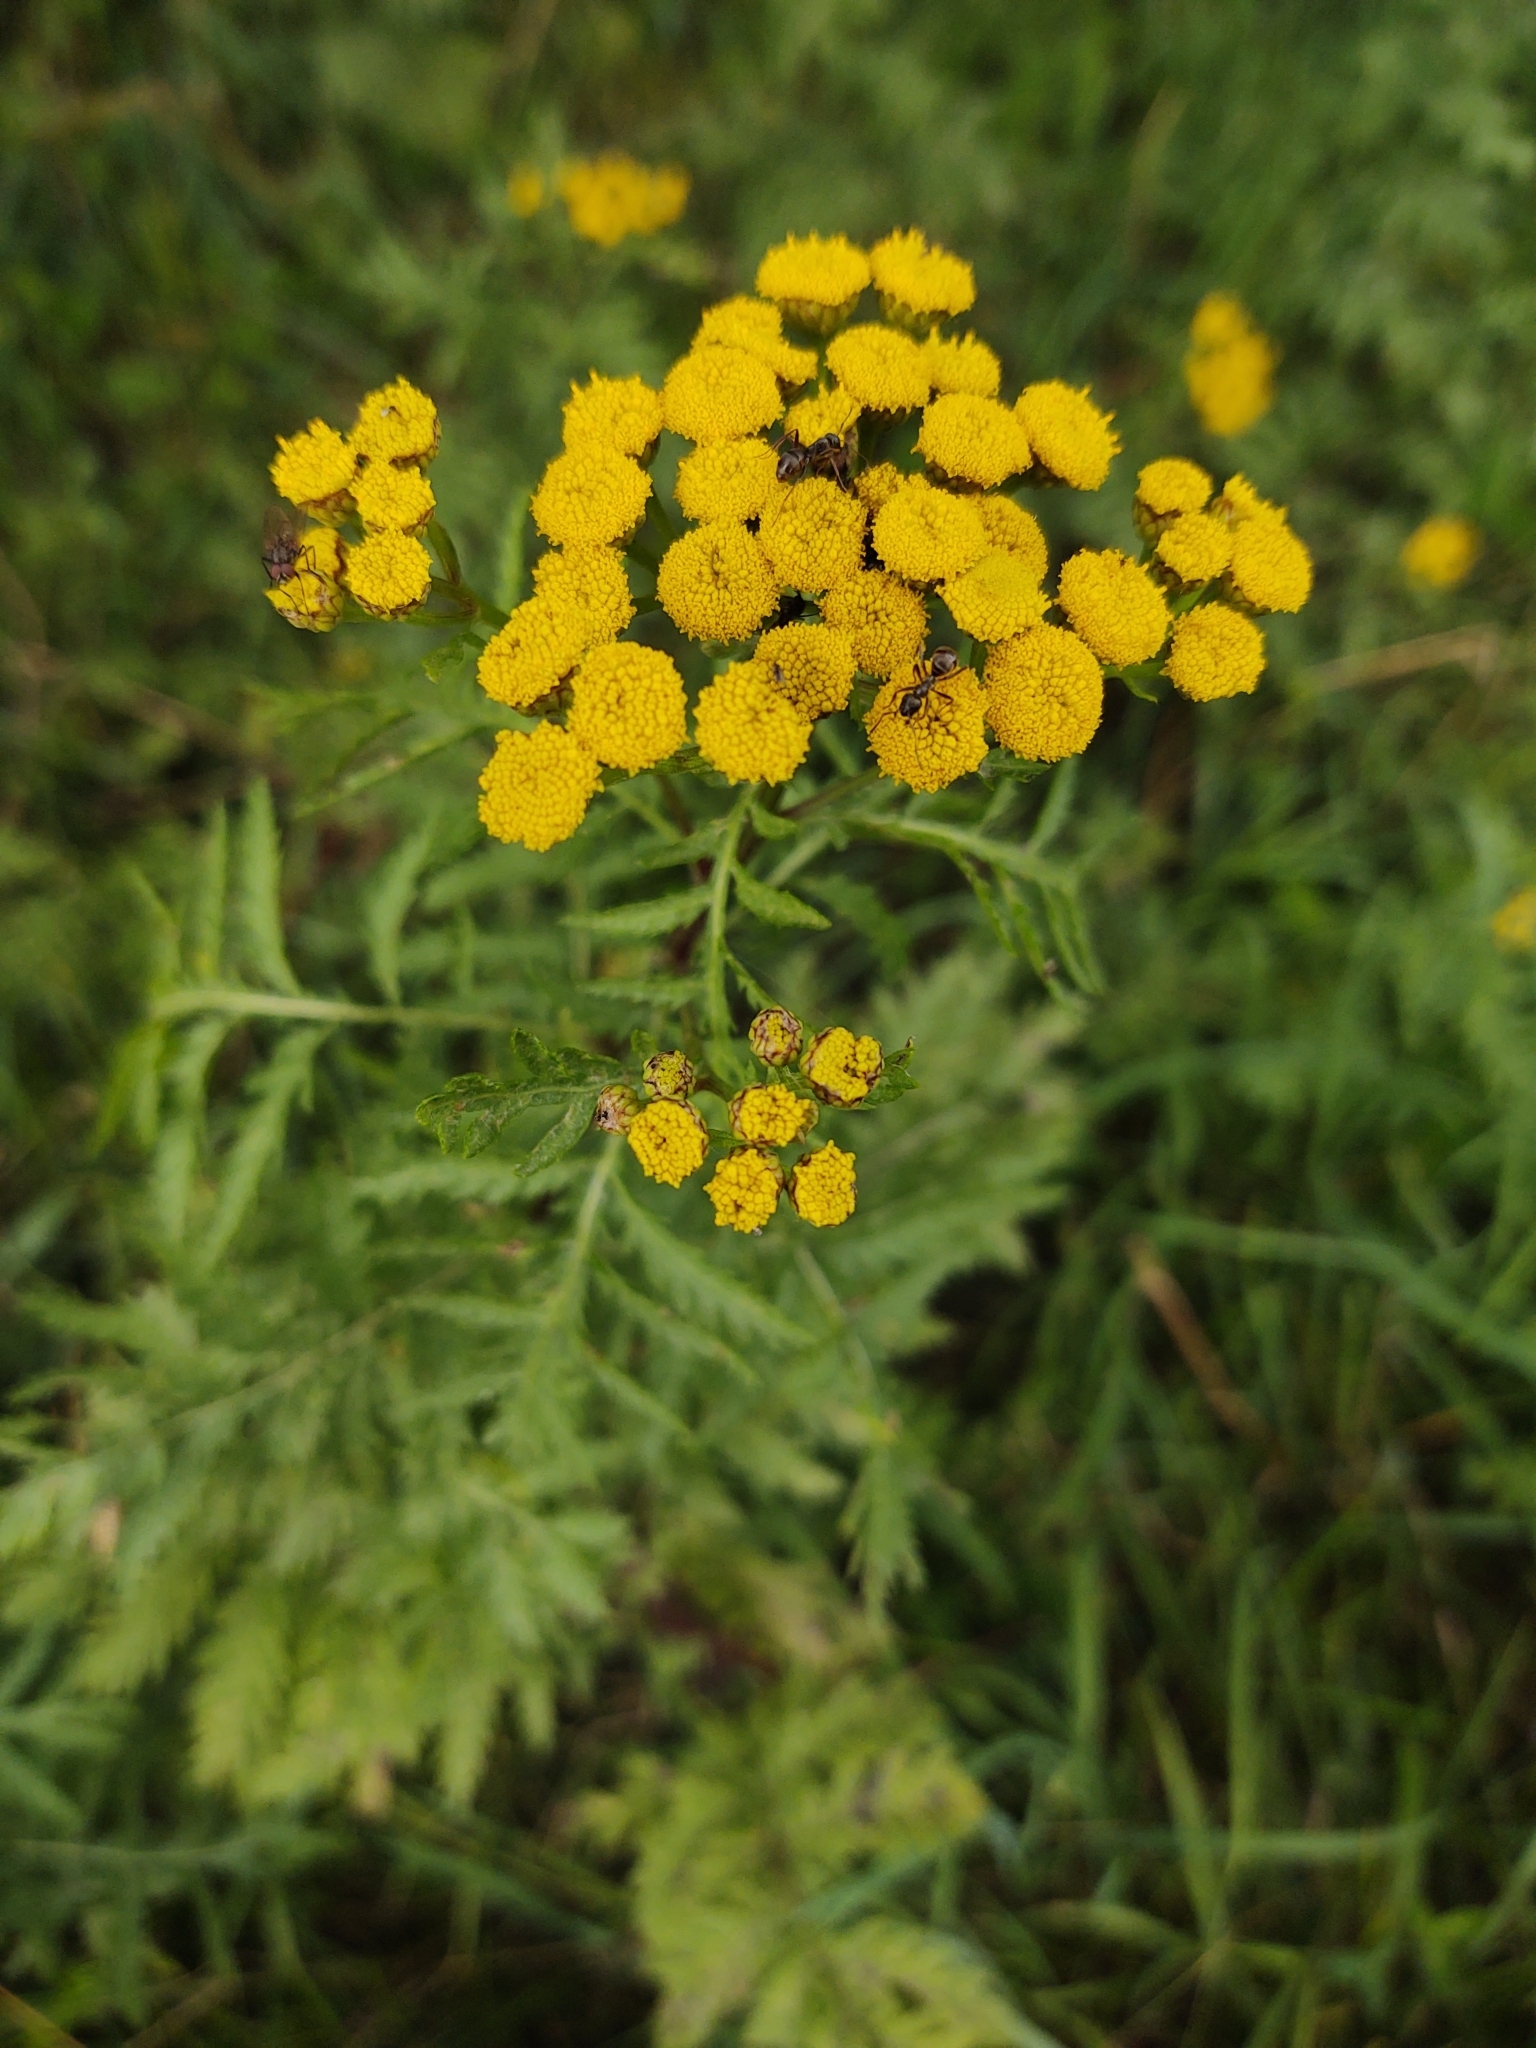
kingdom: Plantae
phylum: Tracheophyta
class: Magnoliopsida
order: Asterales
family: Asteraceae
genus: Tanacetum
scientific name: Tanacetum vulgare
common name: Common tansy
